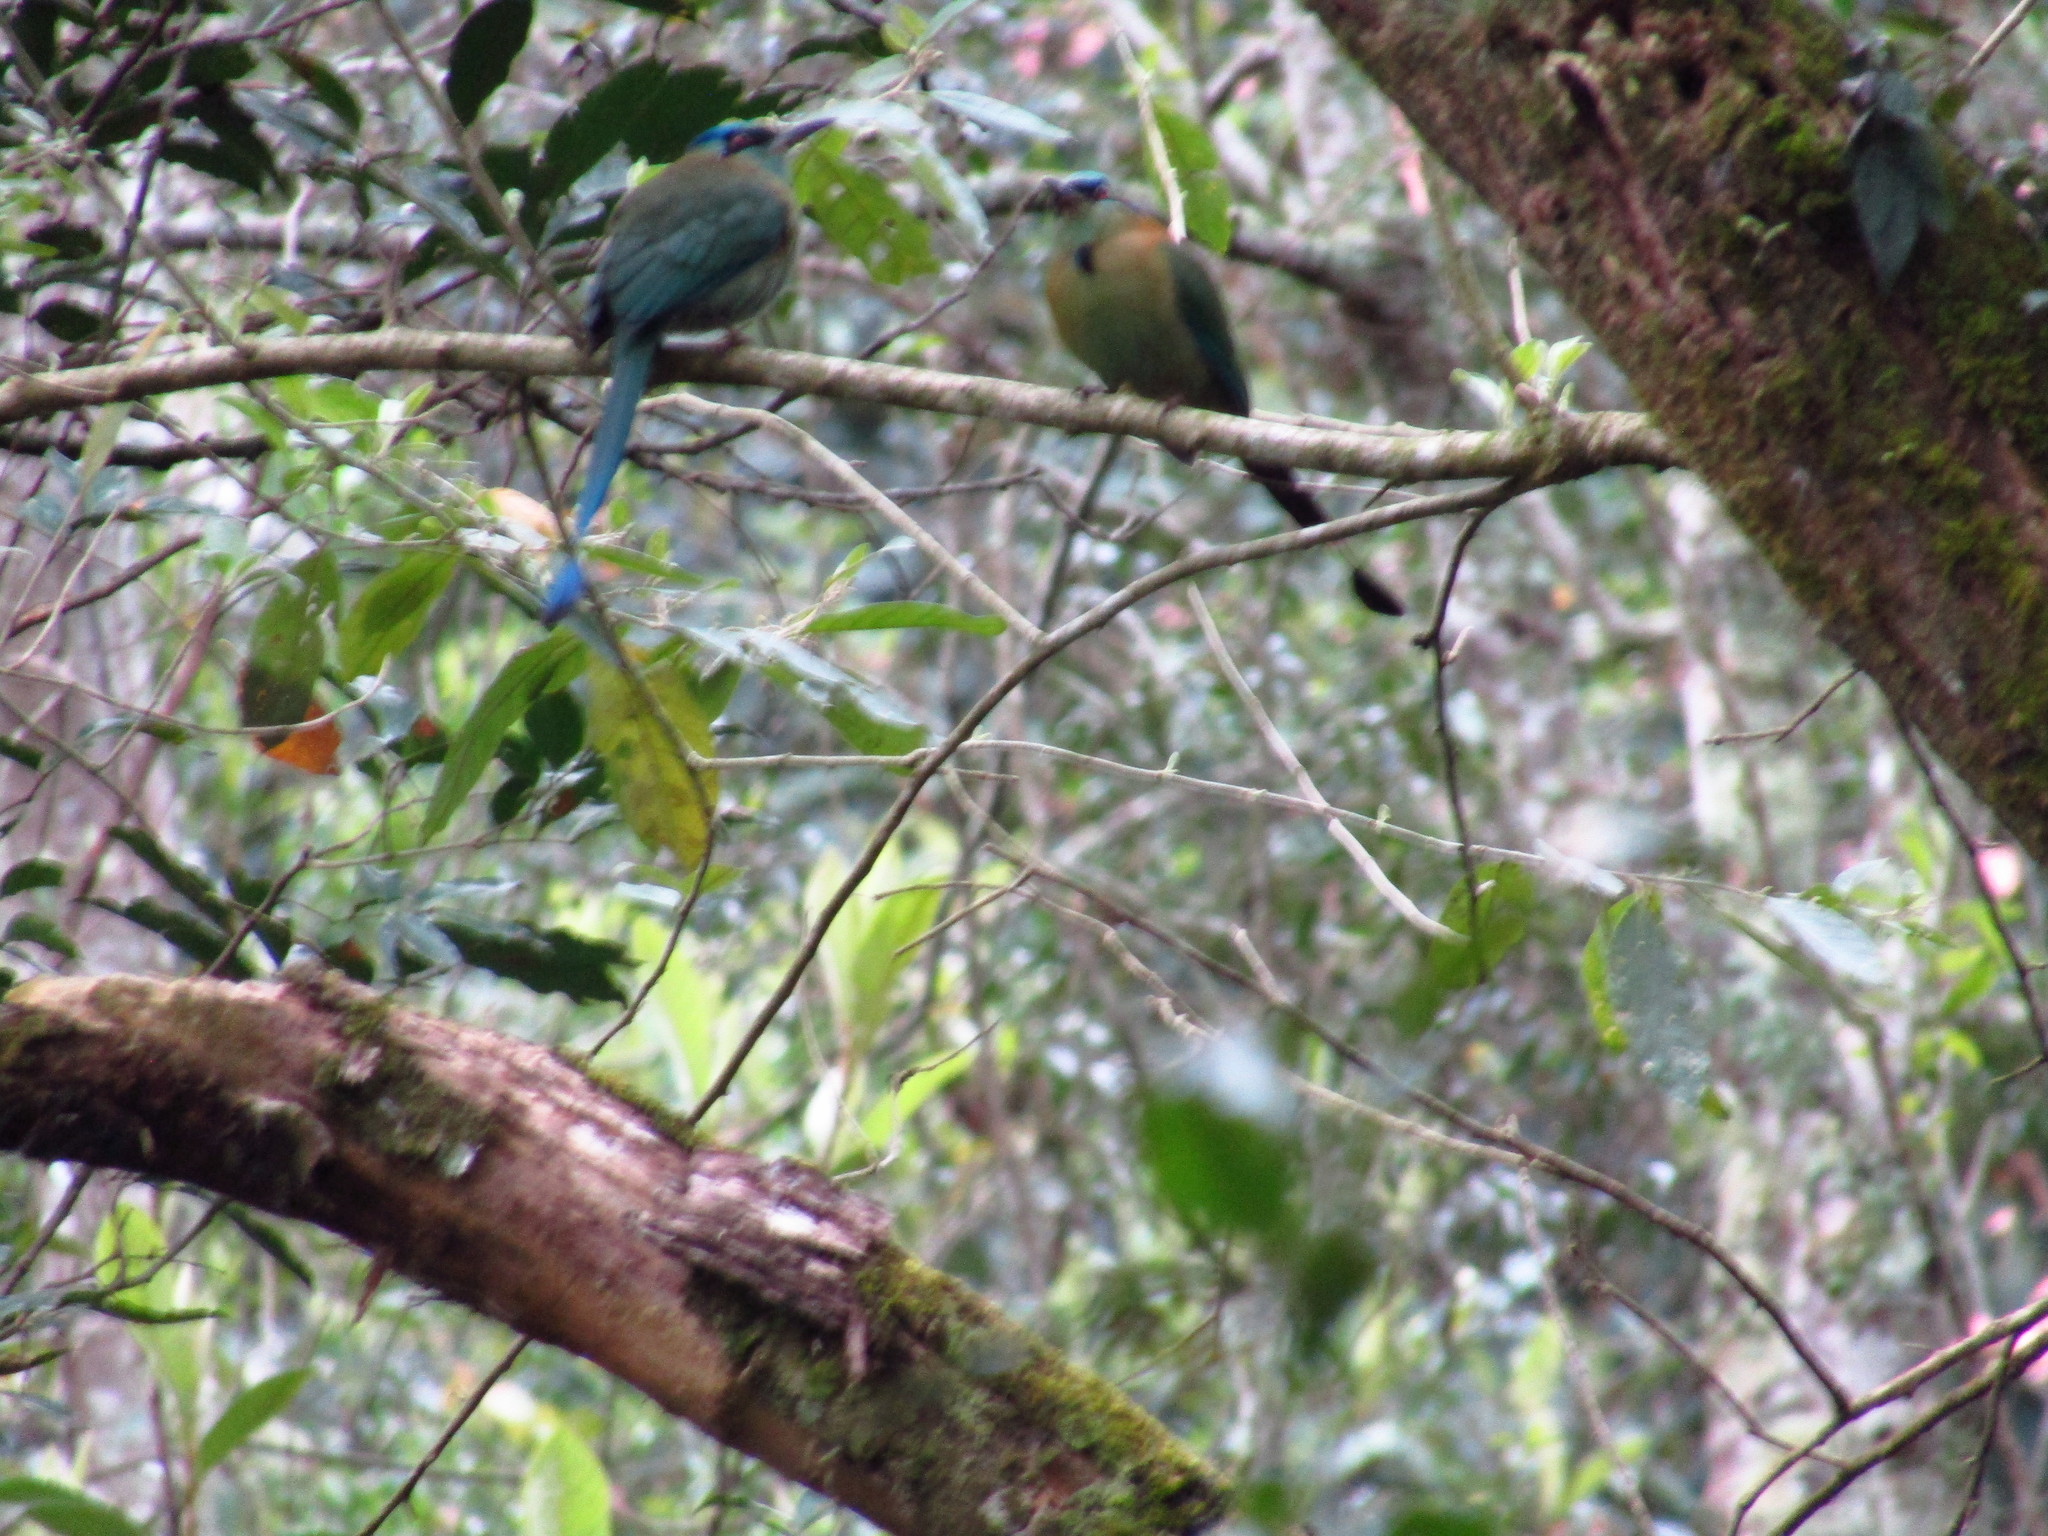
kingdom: Animalia
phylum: Chordata
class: Aves
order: Coraciiformes
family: Momotidae
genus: Momotus
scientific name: Momotus coeruliceps
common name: Blue-capped motmot
